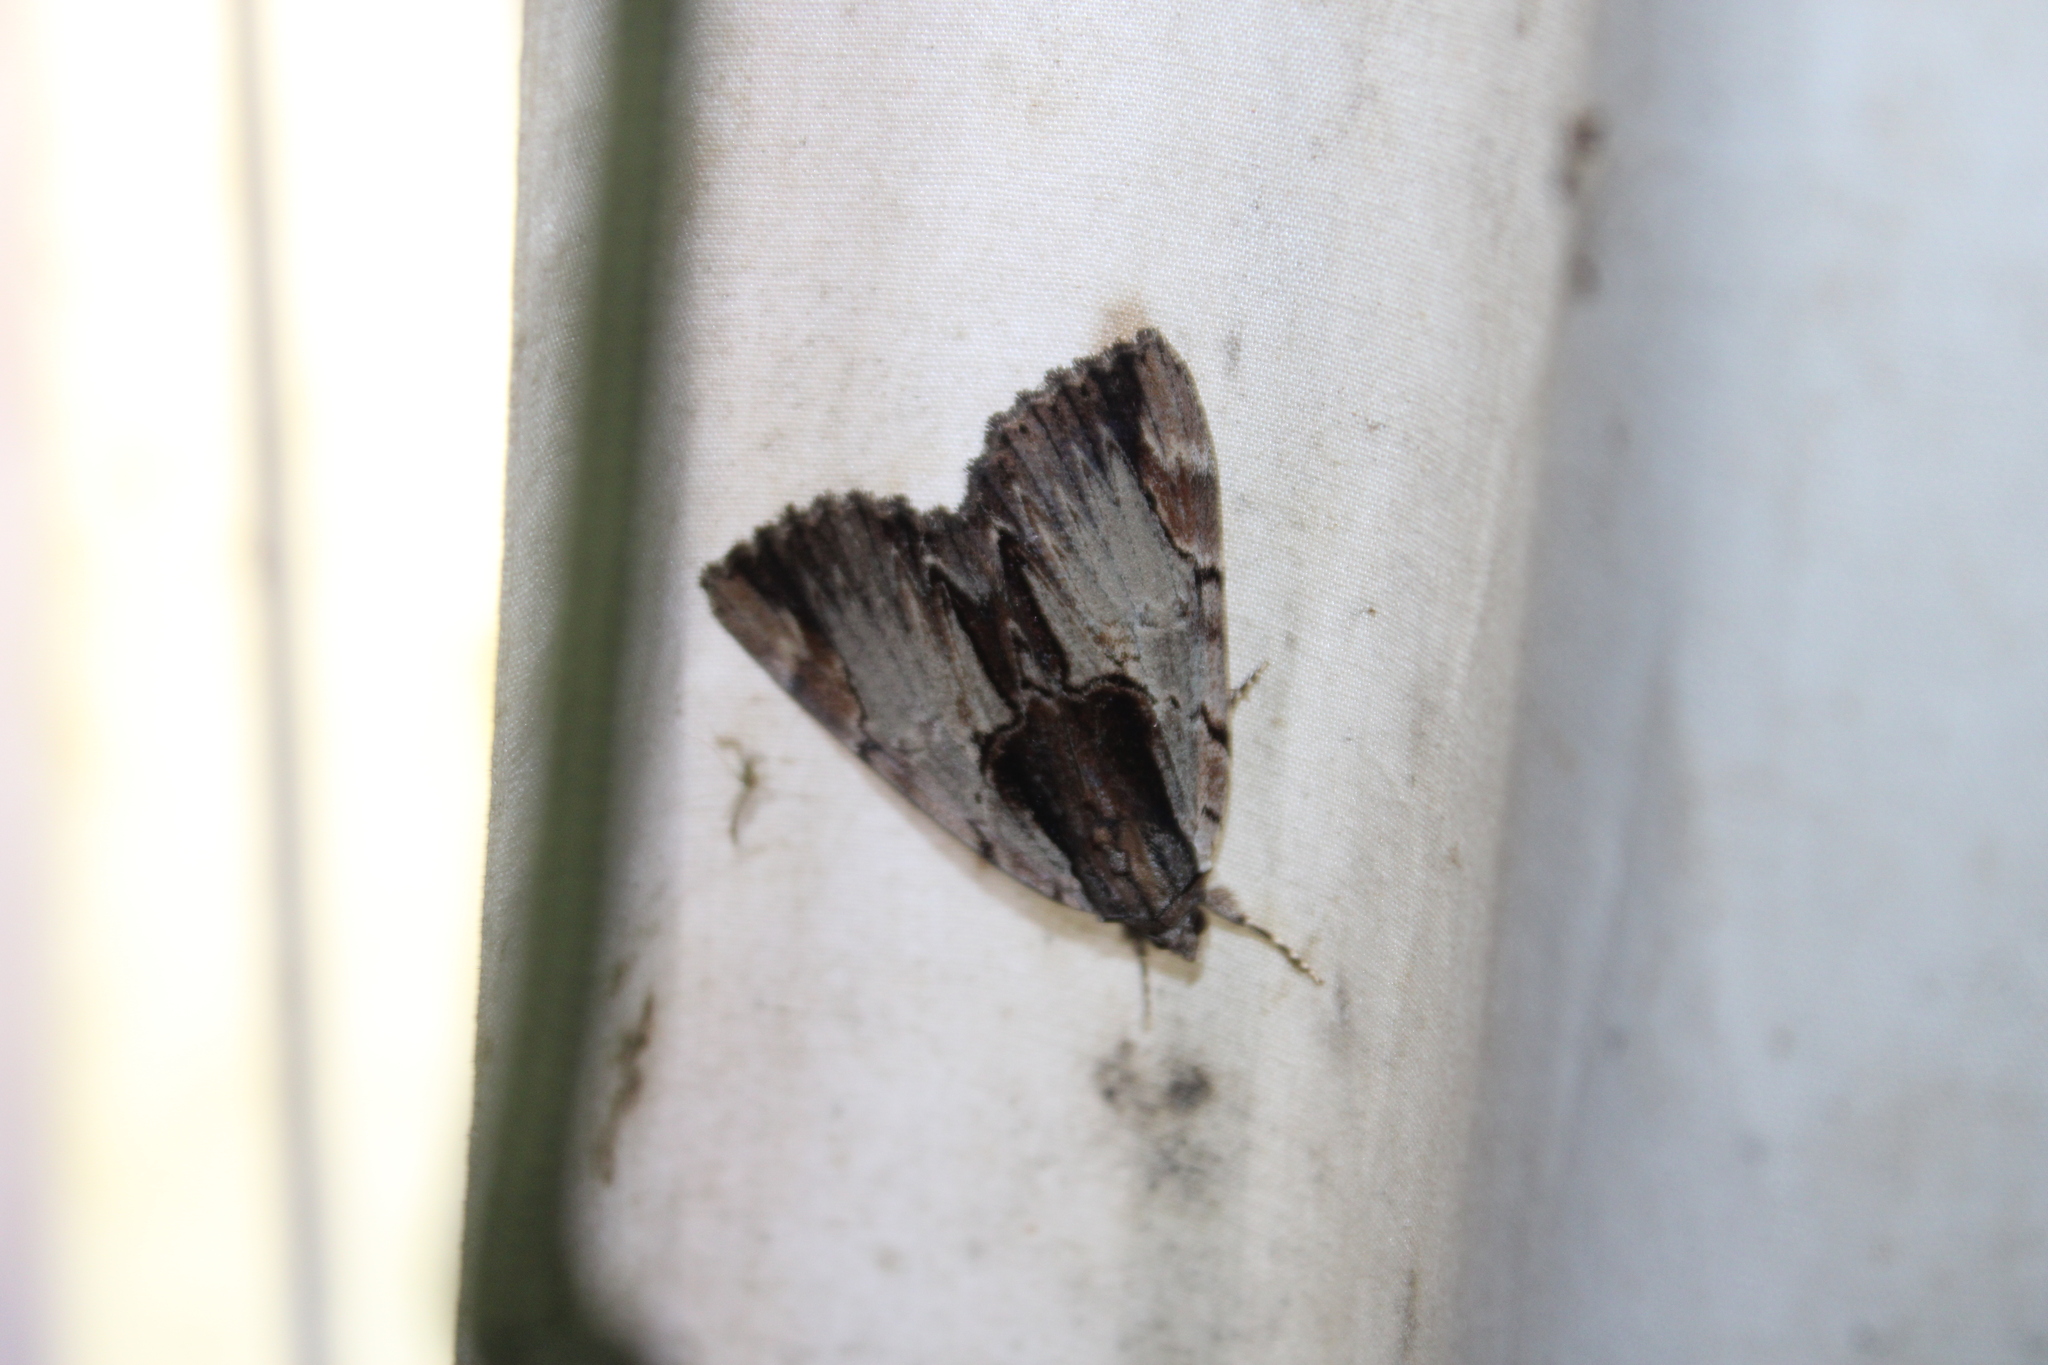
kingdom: Animalia
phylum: Arthropoda
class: Insecta
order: Lepidoptera
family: Erebidae
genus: Catocala
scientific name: Catocala ultronia
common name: Ultronia underwing
